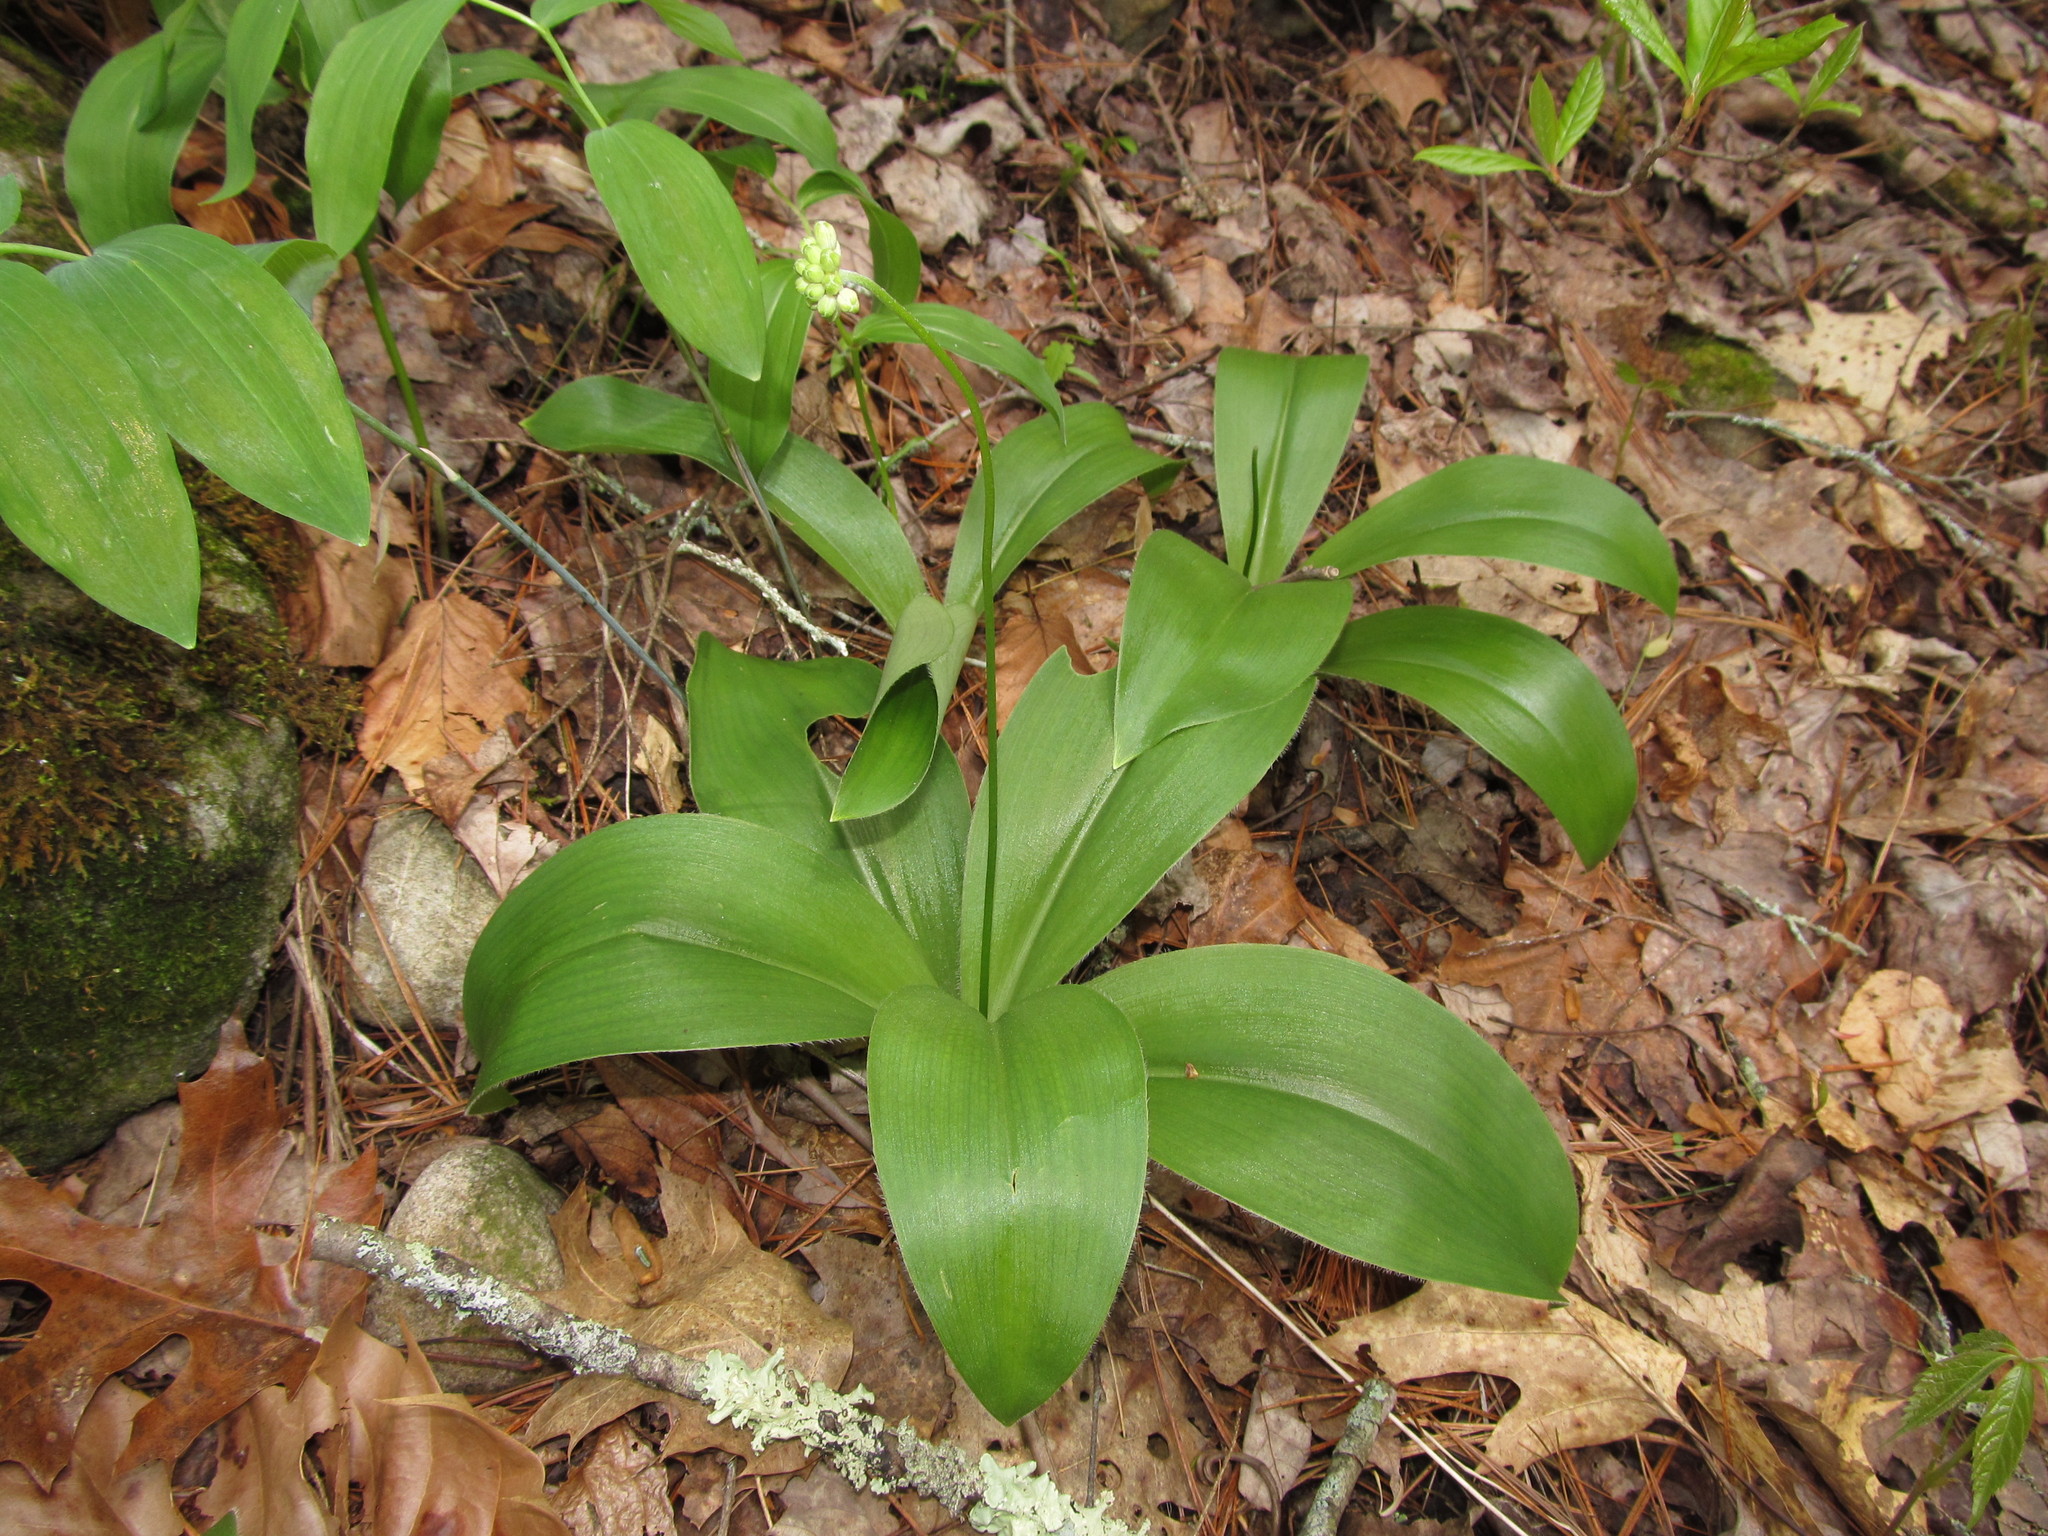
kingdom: Plantae
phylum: Tracheophyta
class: Liliopsida
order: Liliales
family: Liliaceae
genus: Clintonia
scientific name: Clintonia umbellulata
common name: Speckle wood-lily
